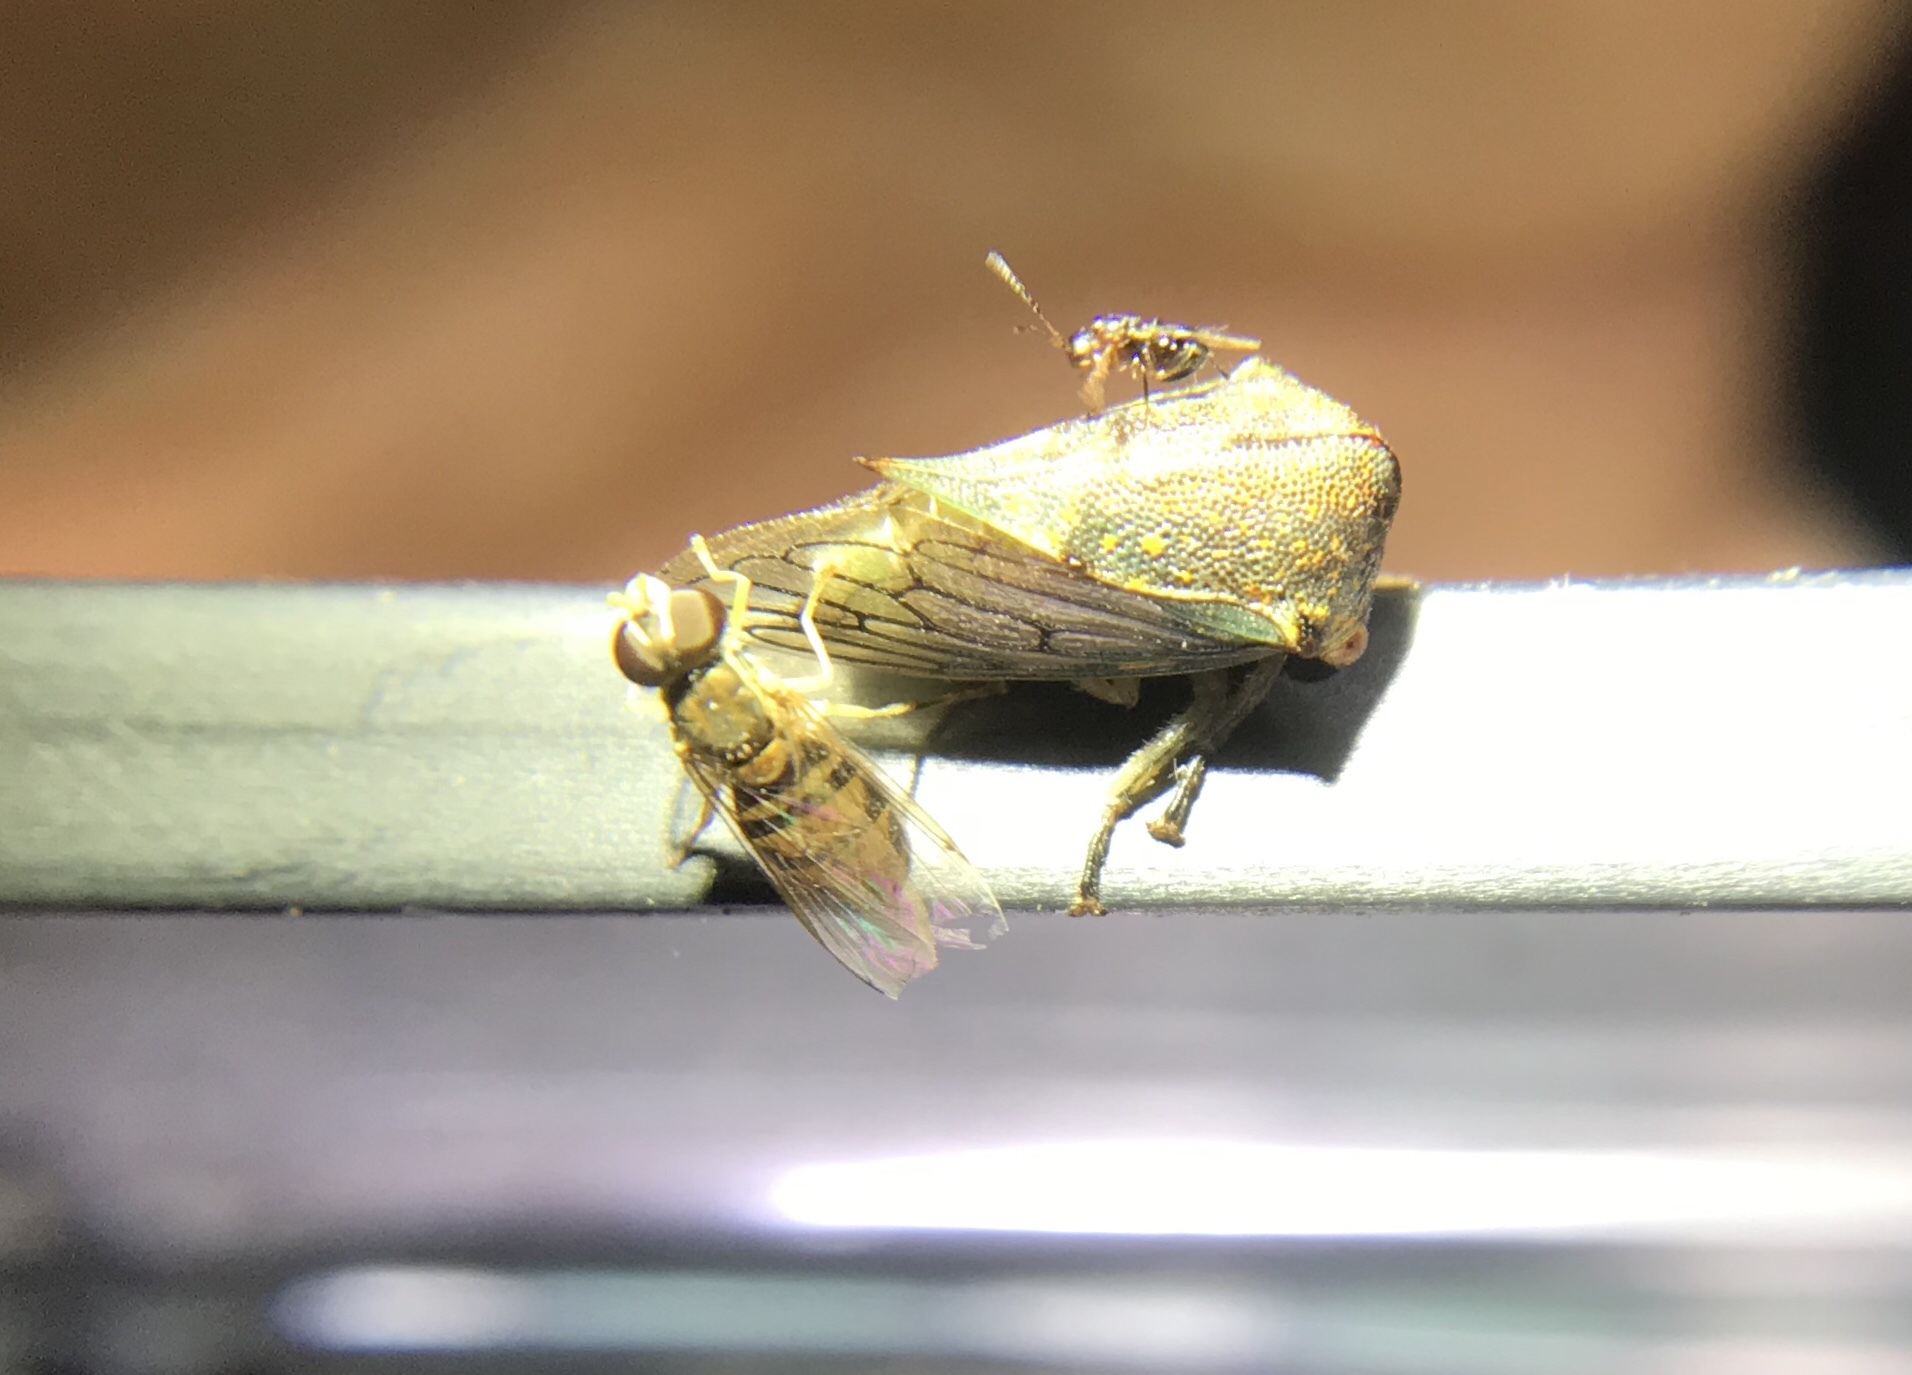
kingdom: Animalia
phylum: Arthropoda
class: Insecta
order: Diptera
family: Syrphidae
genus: Toxomerus
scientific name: Toxomerus marginatus
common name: Syrphid fly
